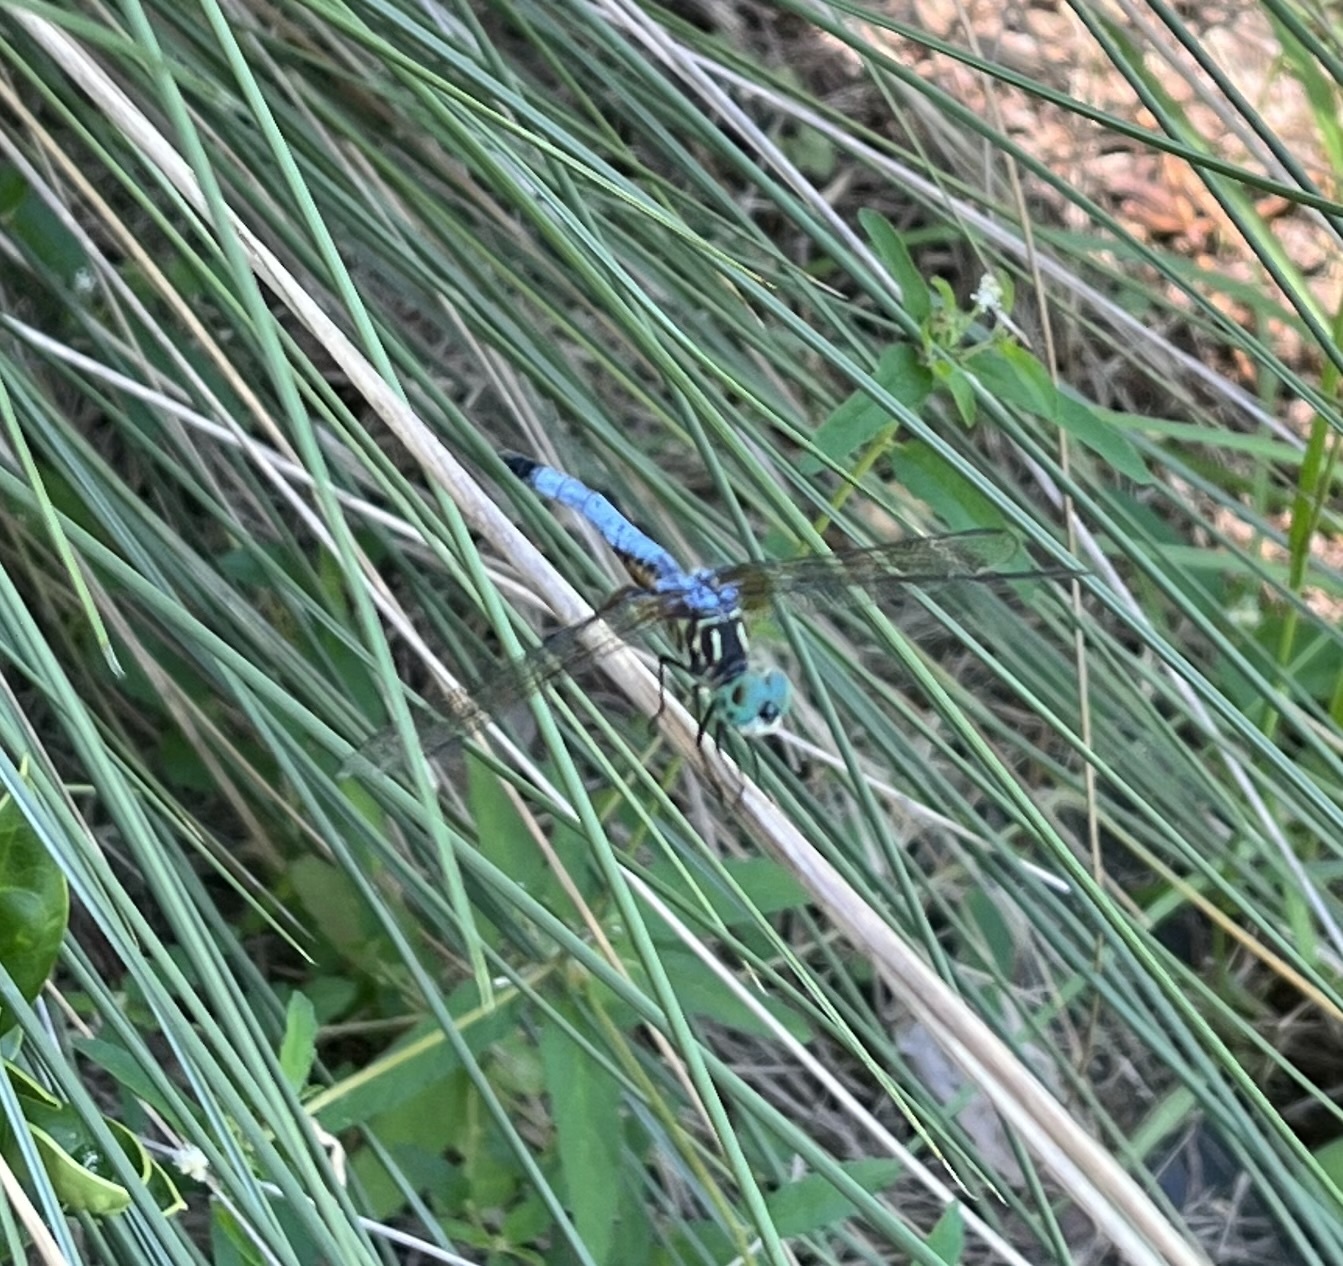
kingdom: Animalia
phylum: Arthropoda
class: Insecta
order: Odonata
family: Libellulidae
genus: Pachydiplax
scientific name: Pachydiplax longipennis
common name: Blue dasher
